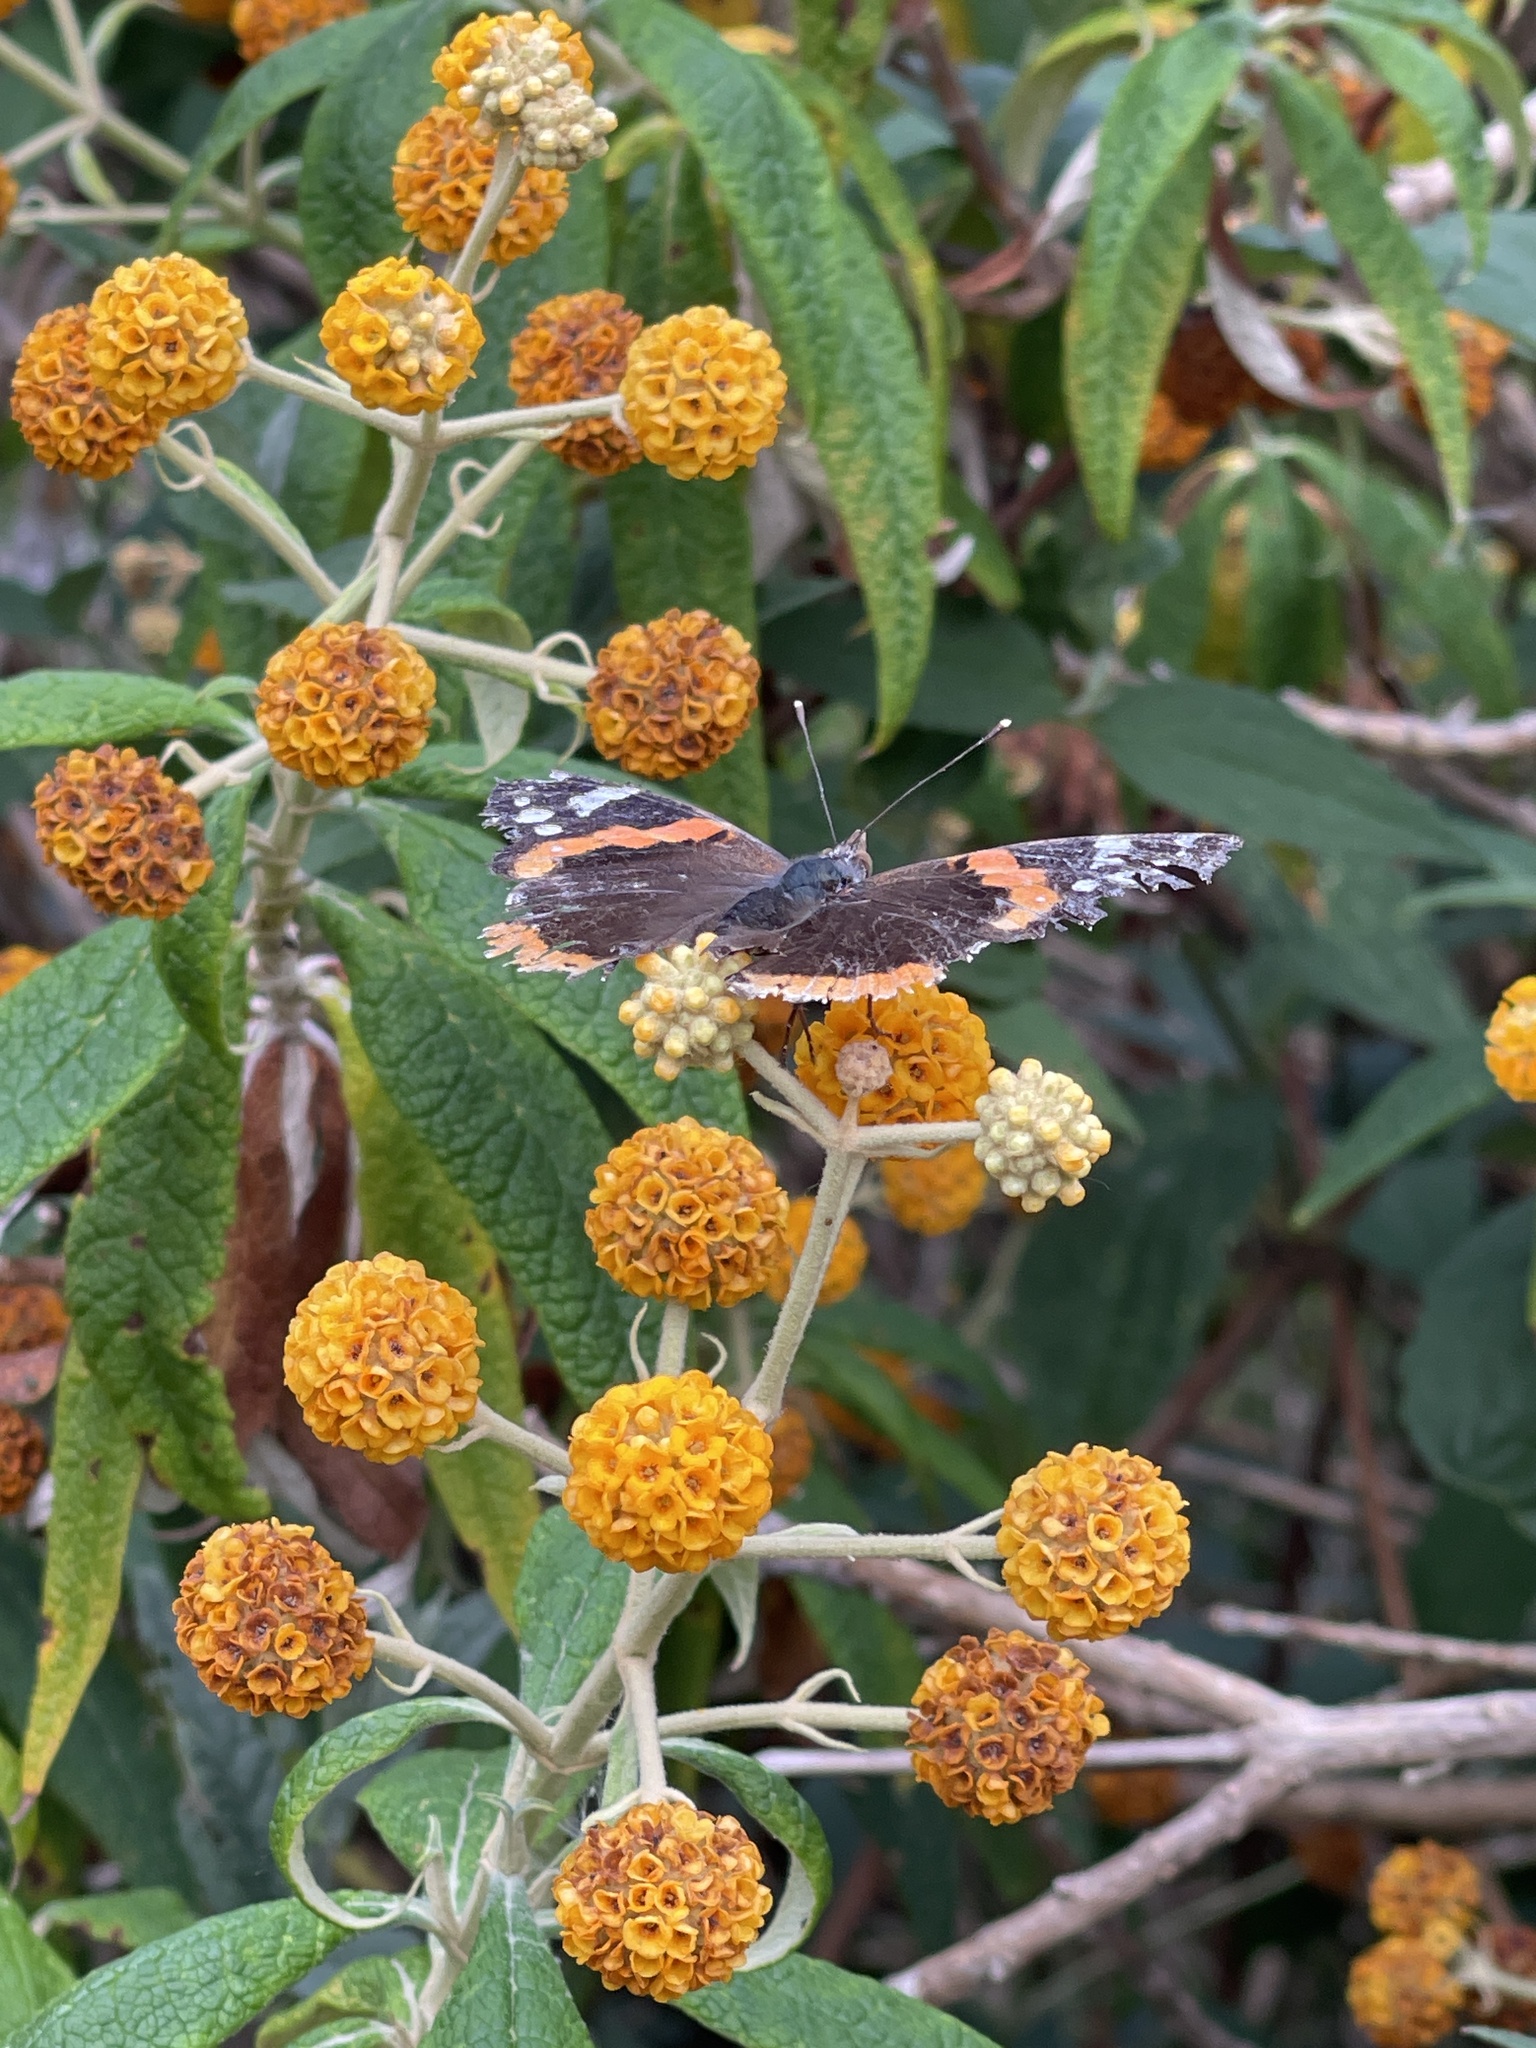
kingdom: Animalia
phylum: Arthropoda
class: Insecta
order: Lepidoptera
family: Nymphalidae
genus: Vanessa
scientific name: Vanessa atalanta
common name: Red admiral
